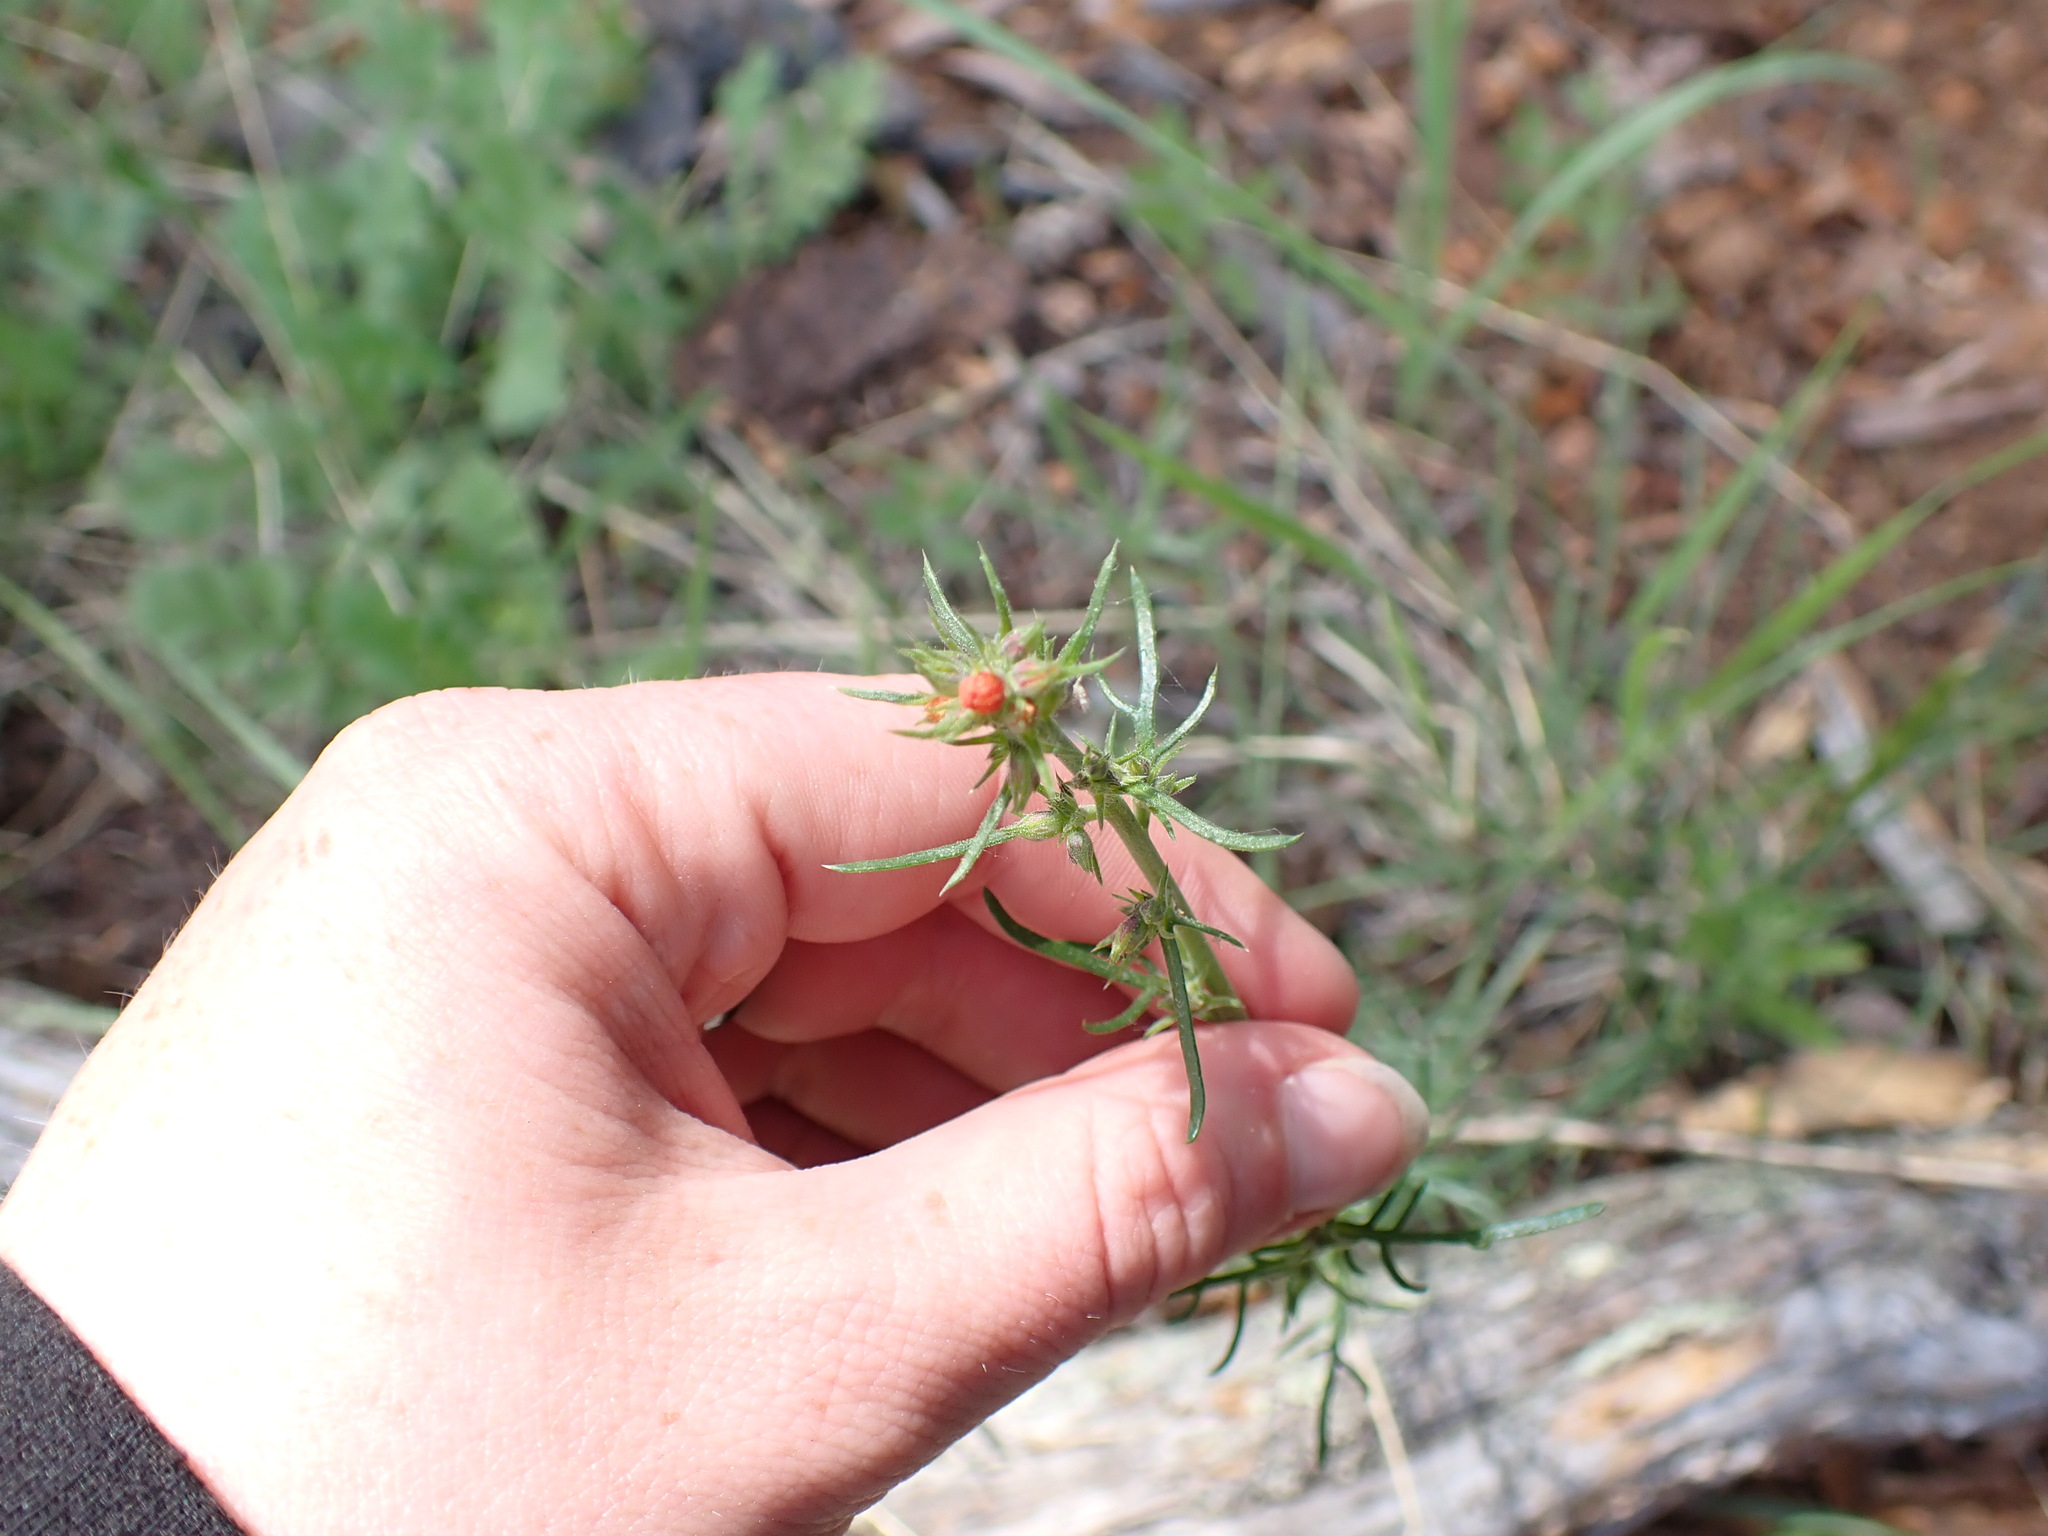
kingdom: Plantae
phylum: Tracheophyta
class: Magnoliopsida
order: Ericales
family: Polemoniaceae
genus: Ipomopsis
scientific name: Ipomopsis aggregata
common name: Scarlet gilia
